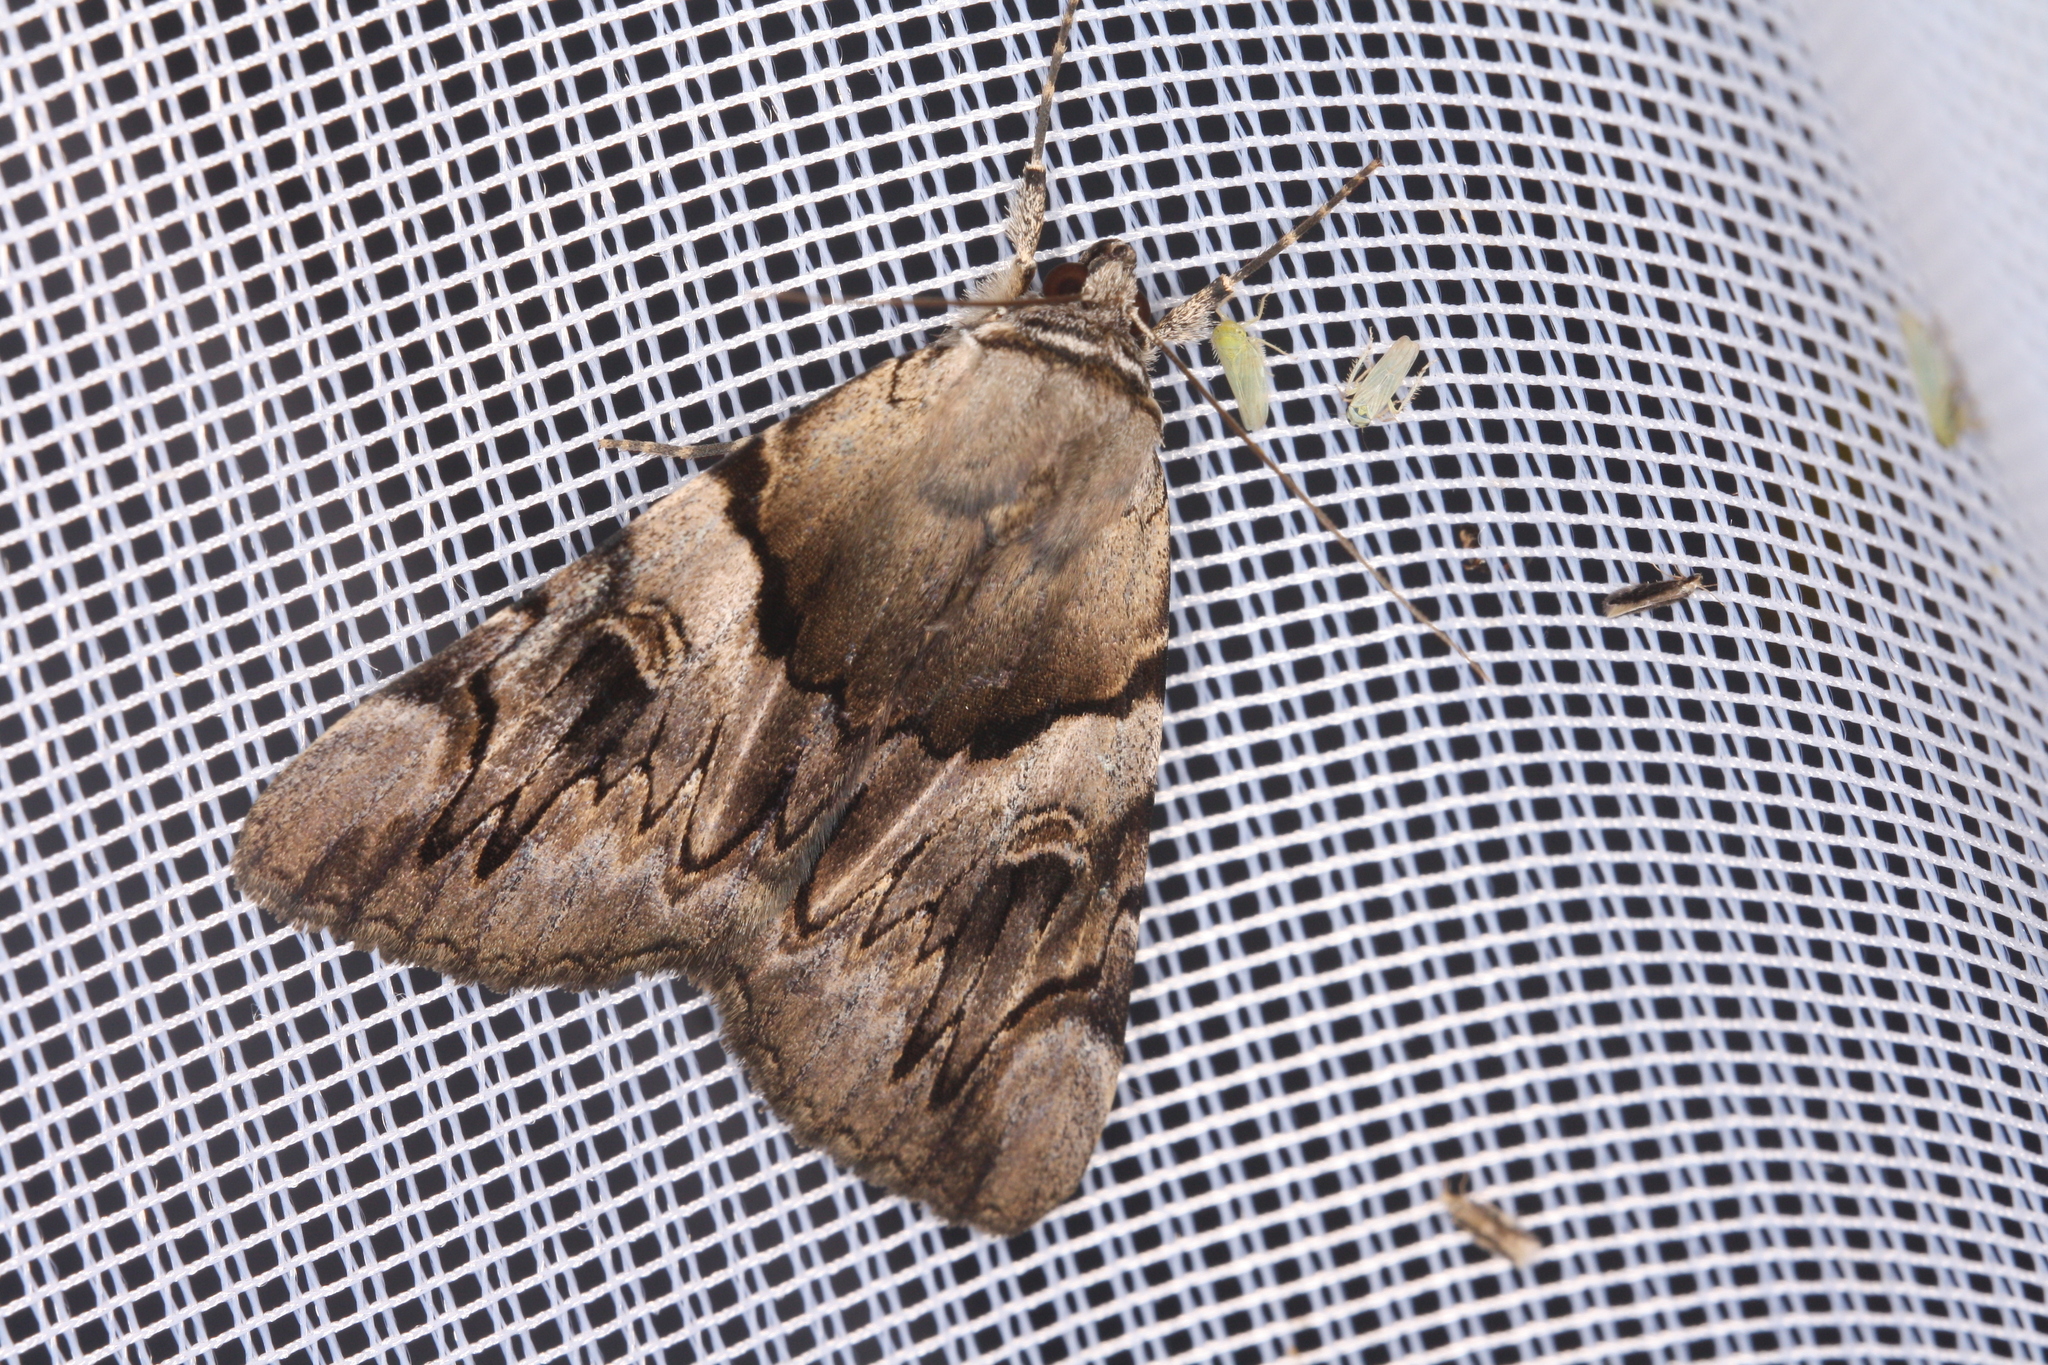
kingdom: Animalia
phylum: Arthropoda
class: Insecta
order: Lepidoptera
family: Erebidae
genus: Catocala
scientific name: Catocala fulminea
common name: Yellow bands underwing
